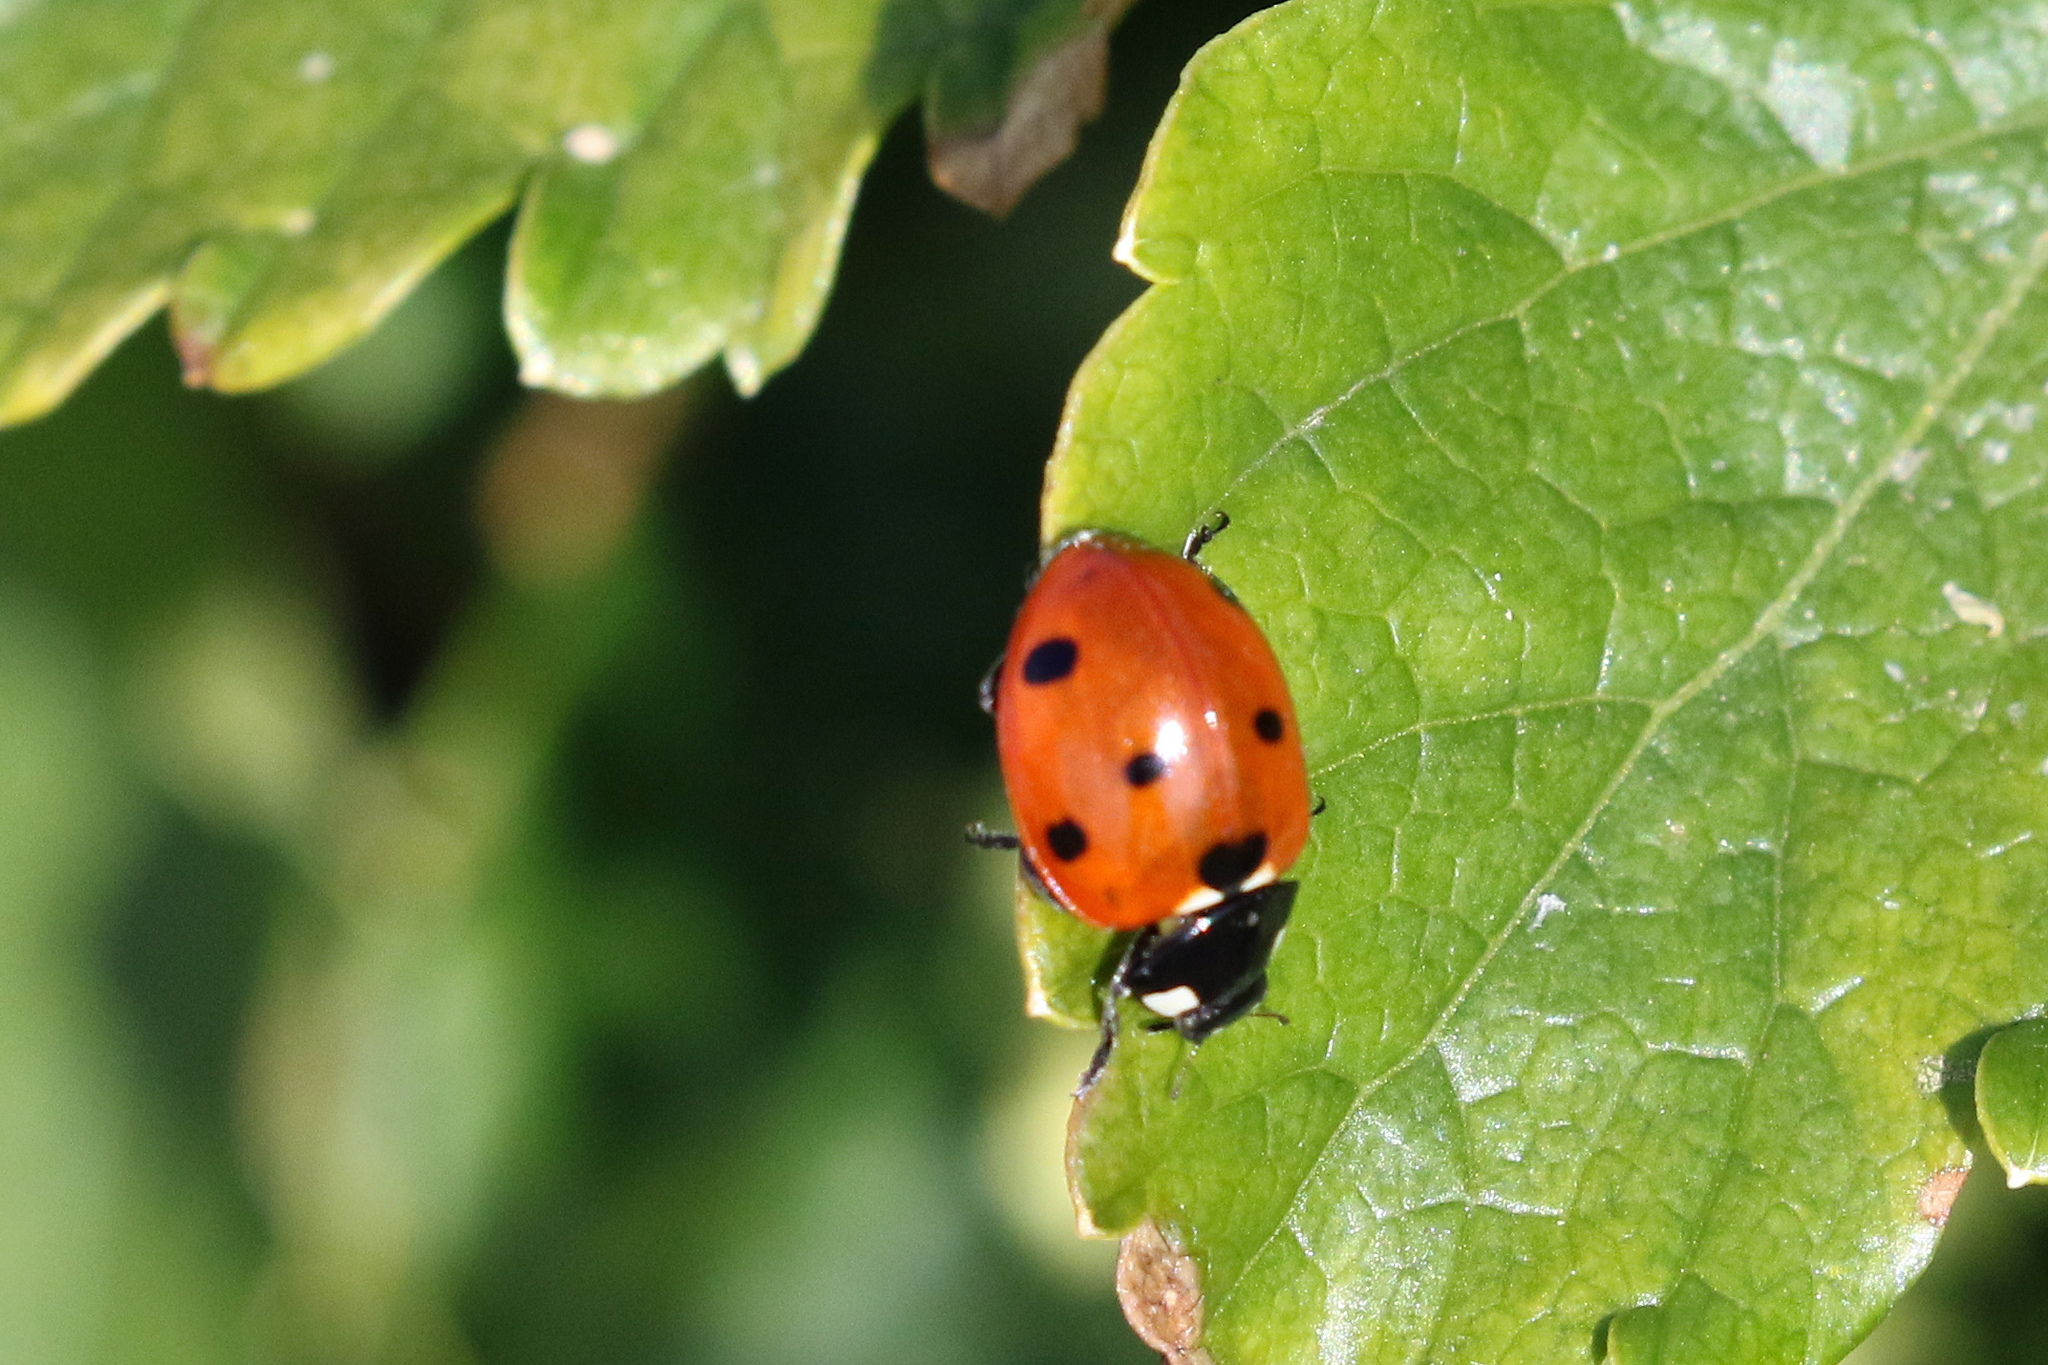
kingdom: Animalia
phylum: Arthropoda
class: Insecta
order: Coleoptera
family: Coccinellidae
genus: Coccinella
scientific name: Coccinella septempunctata
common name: Sevenspotted lady beetle
